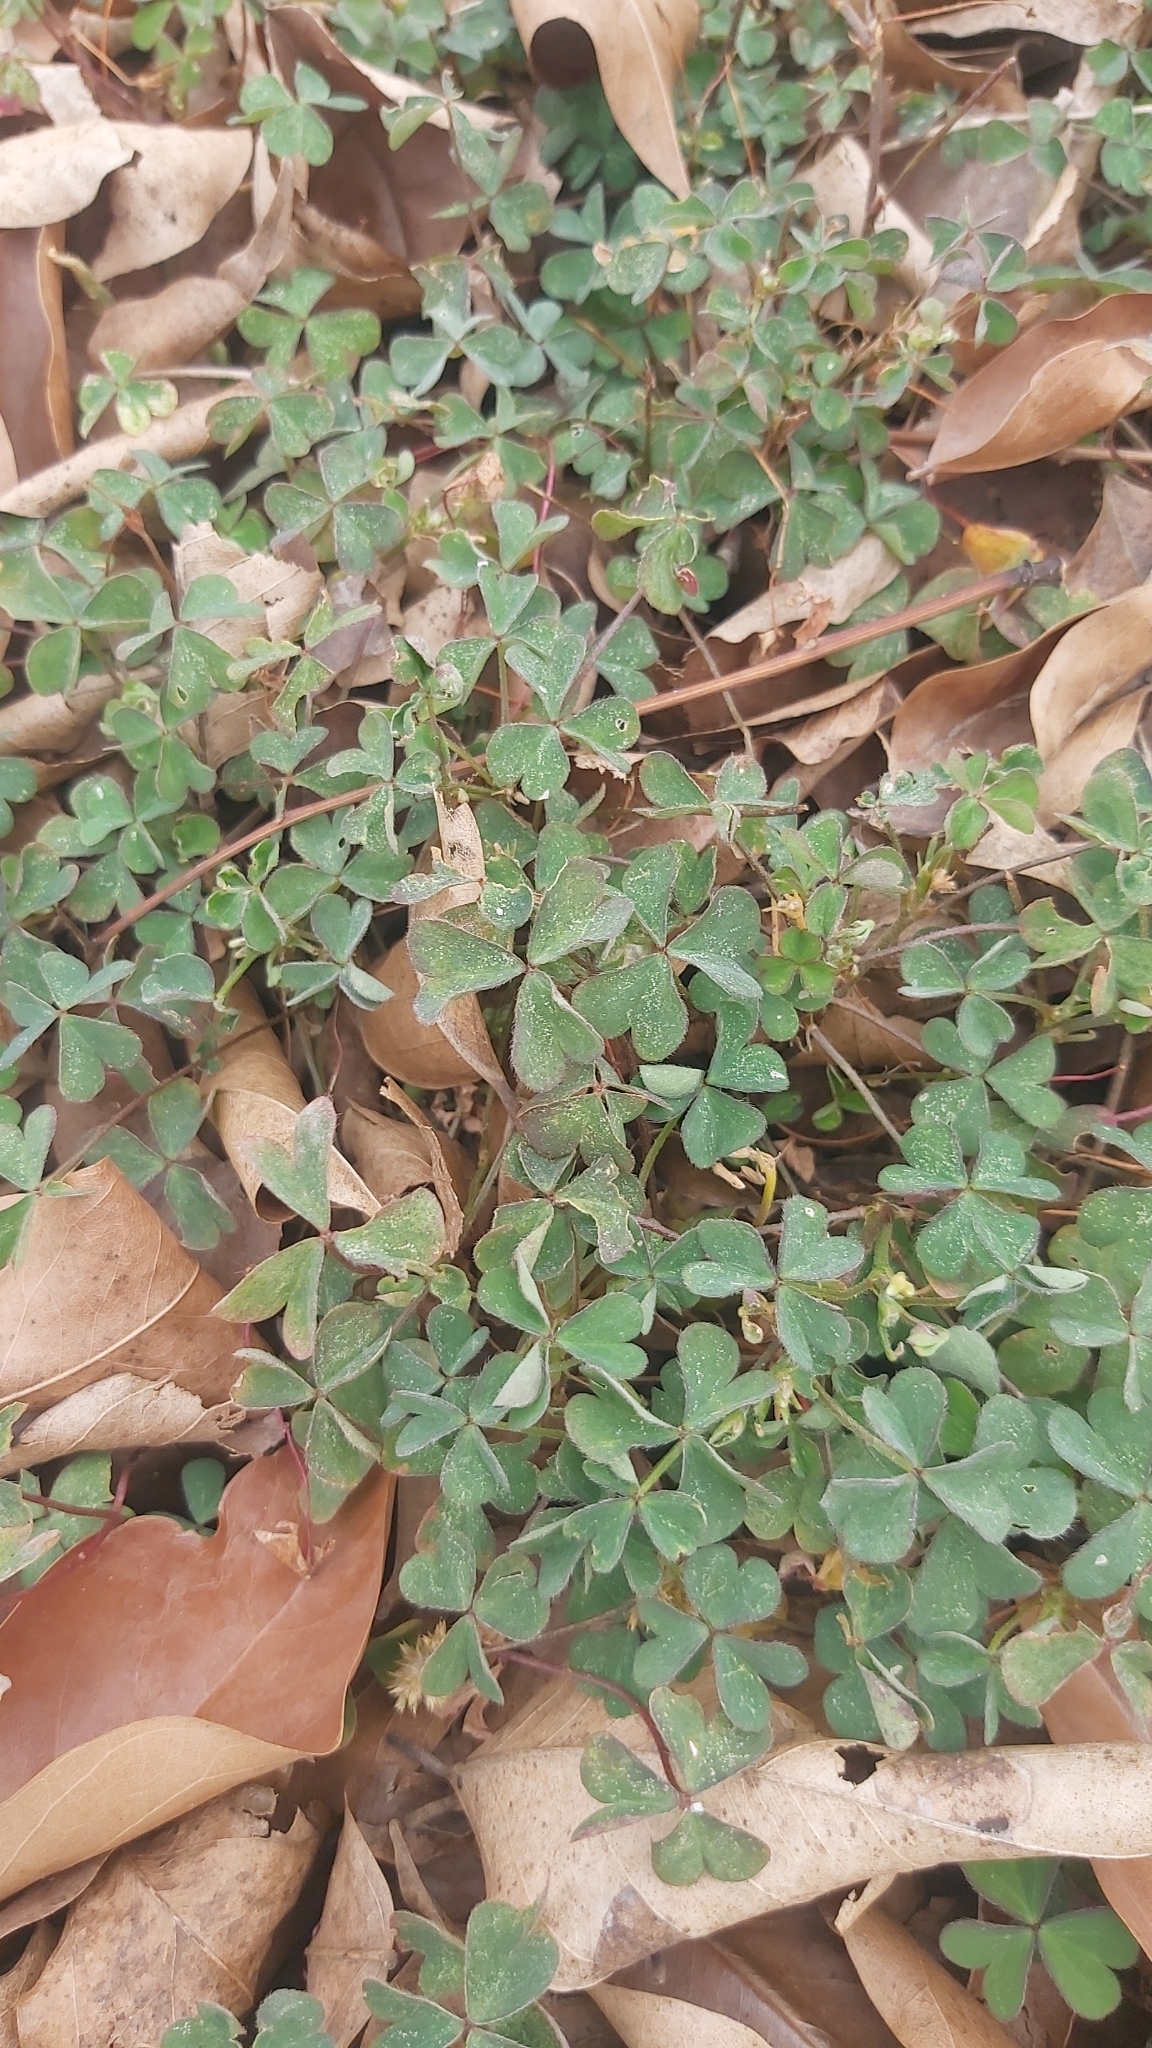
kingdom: Plantae
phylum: Tracheophyta
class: Magnoliopsida
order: Oxalidales
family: Oxalidaceae
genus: Oxalis
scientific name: Oxalis corniculata
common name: Procumbent yellow-sorrel
